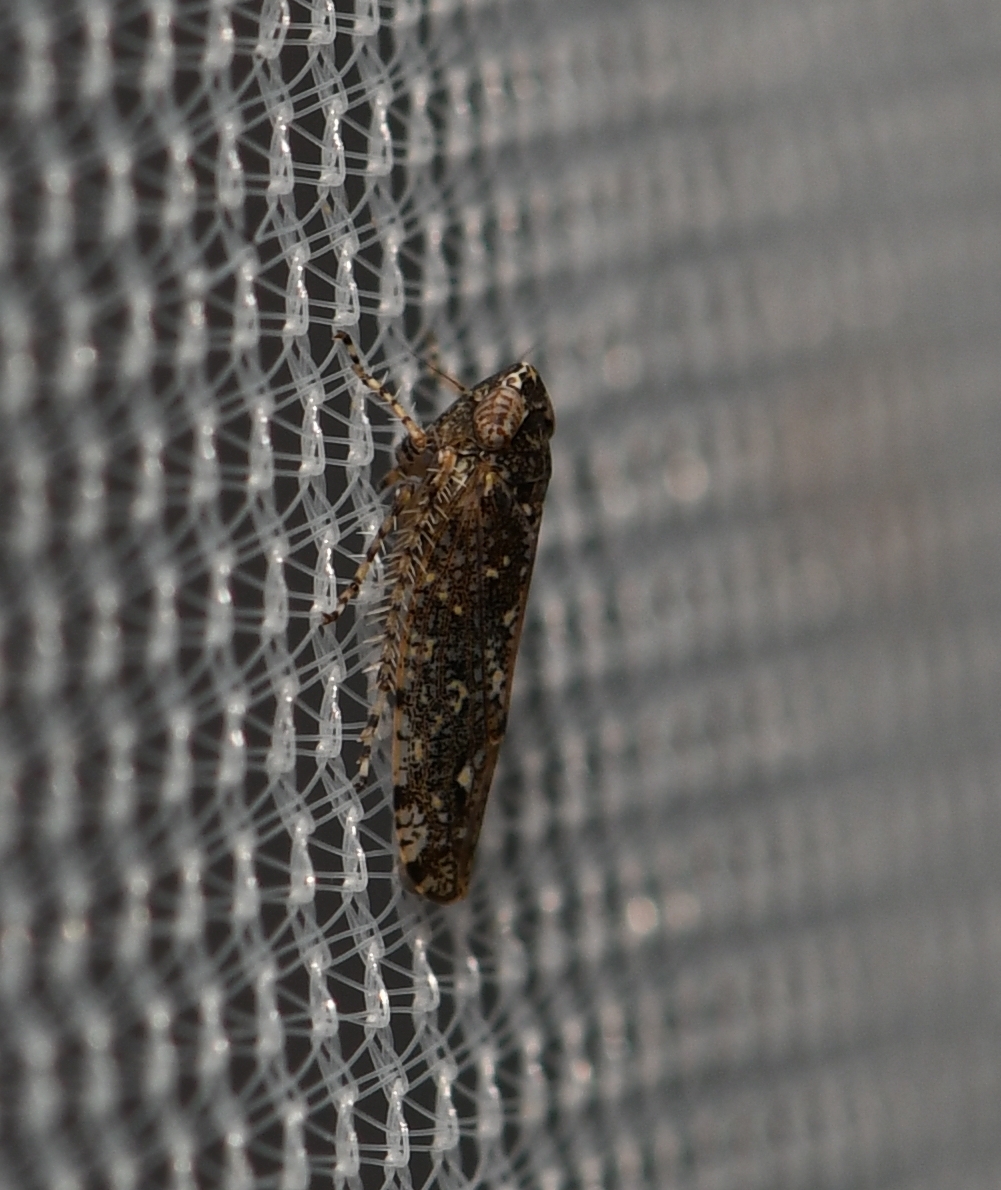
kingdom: Animalia
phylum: Arthropoda
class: Insecta
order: Hemiptera
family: Cicadellidae
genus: Dixianus
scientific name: Dixianus utahnus
